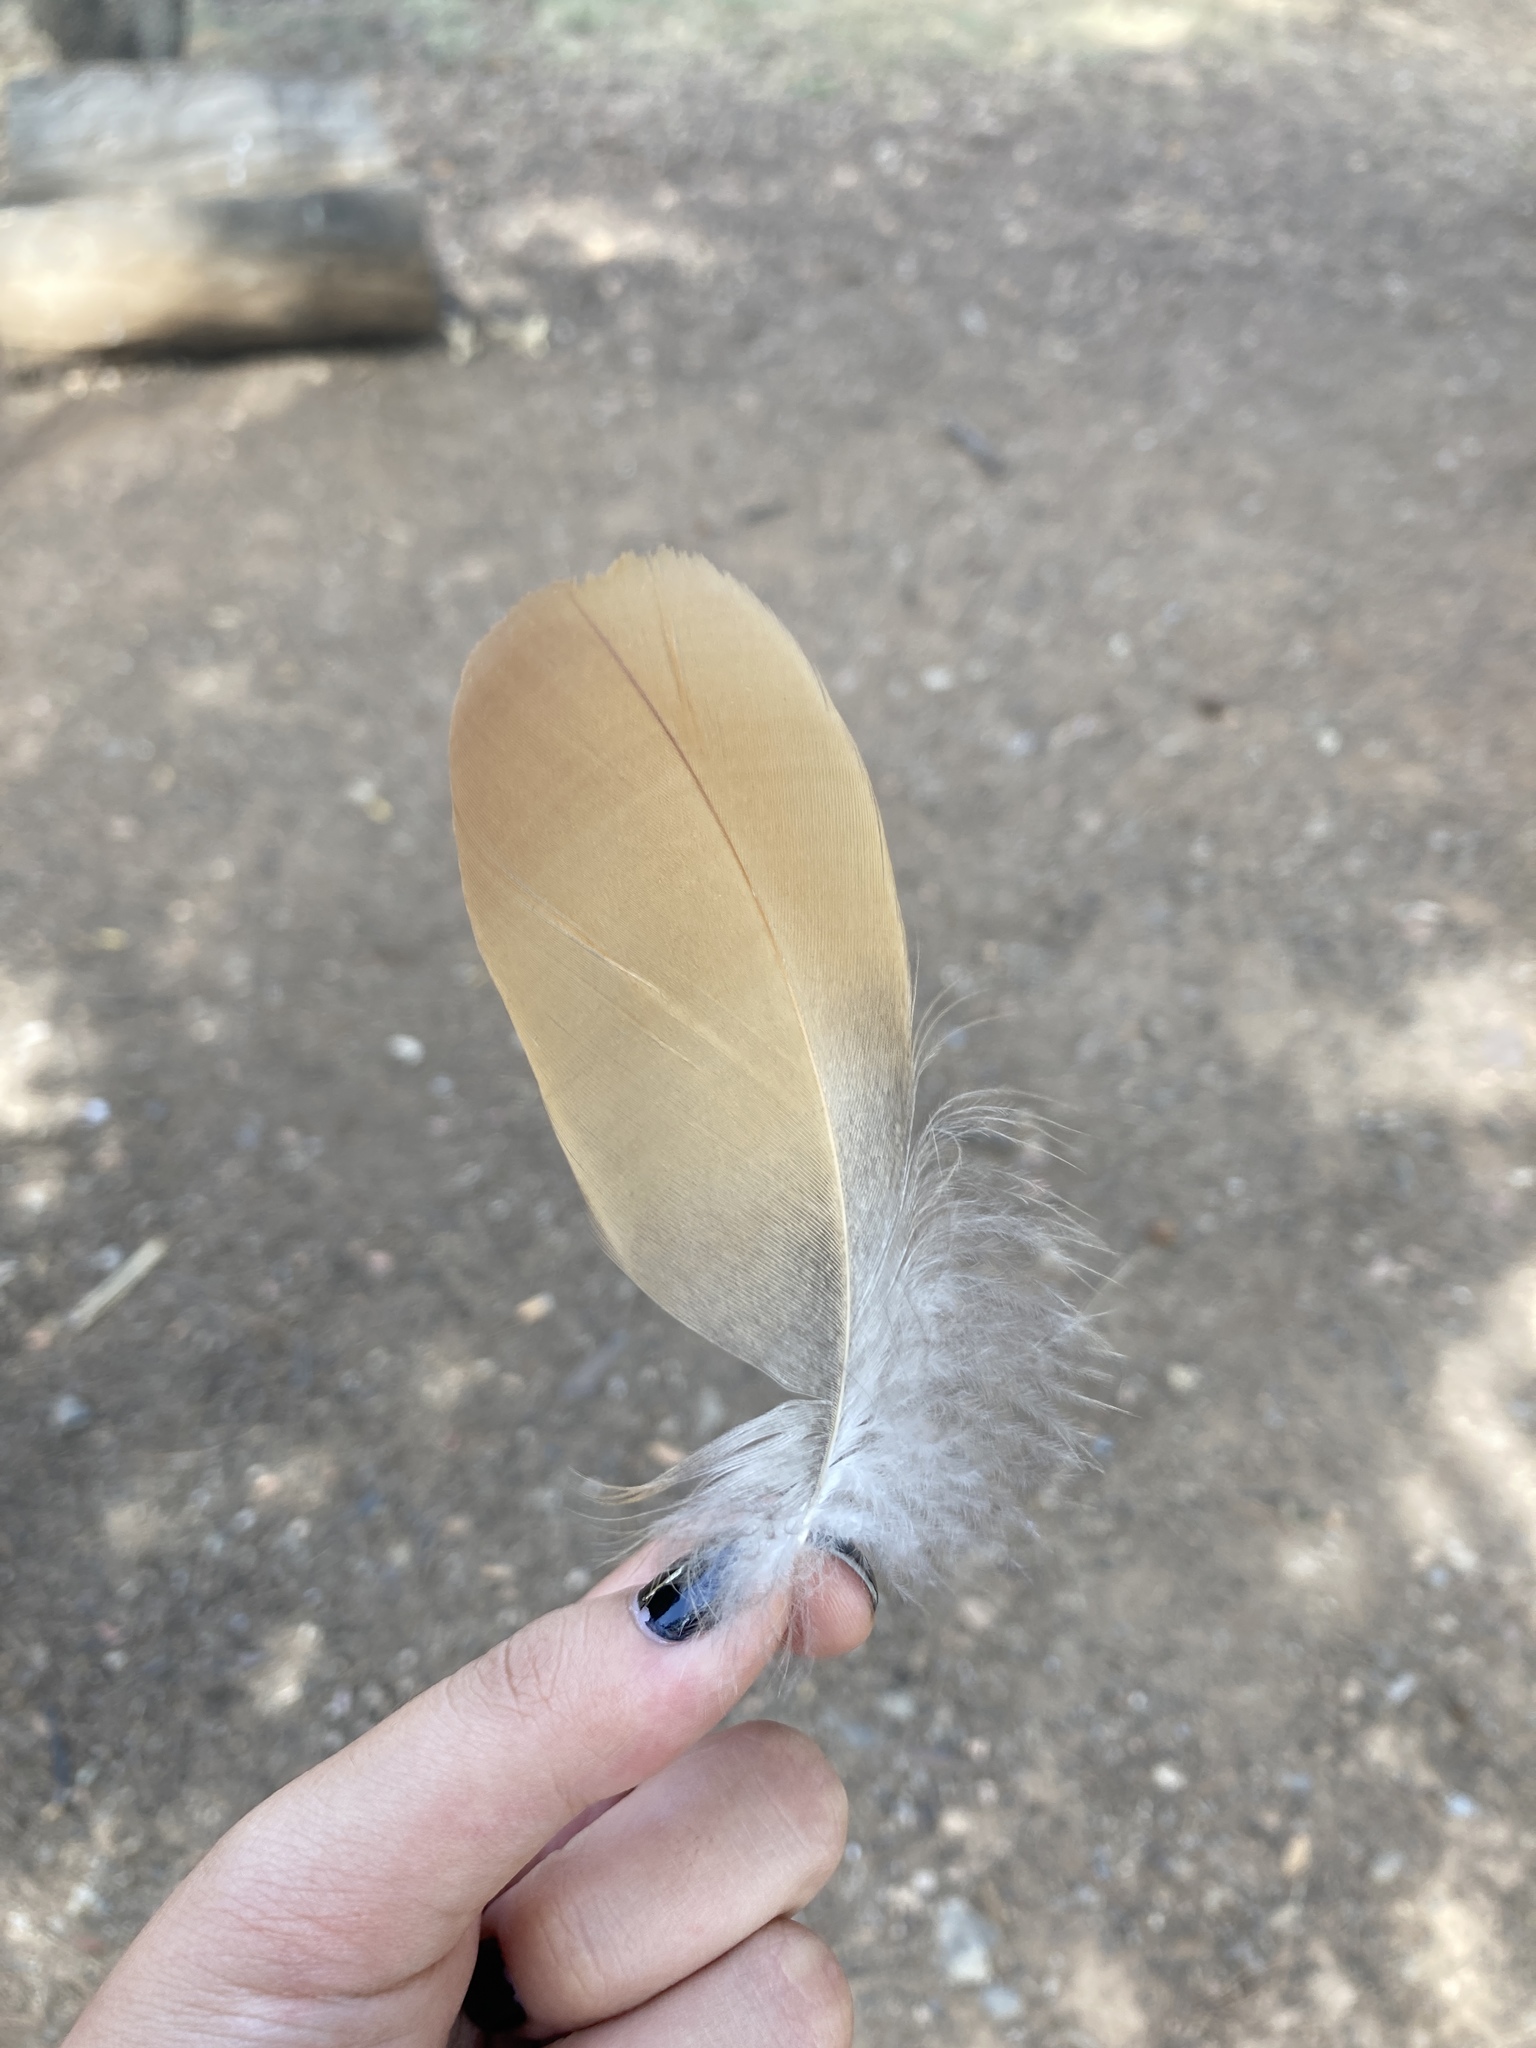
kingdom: Animalia
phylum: Chordata
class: Aves
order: Anseriformes
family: Anatidae
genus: Tadorna
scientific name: Tadorna ferruginea
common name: Ruddy shelduck
